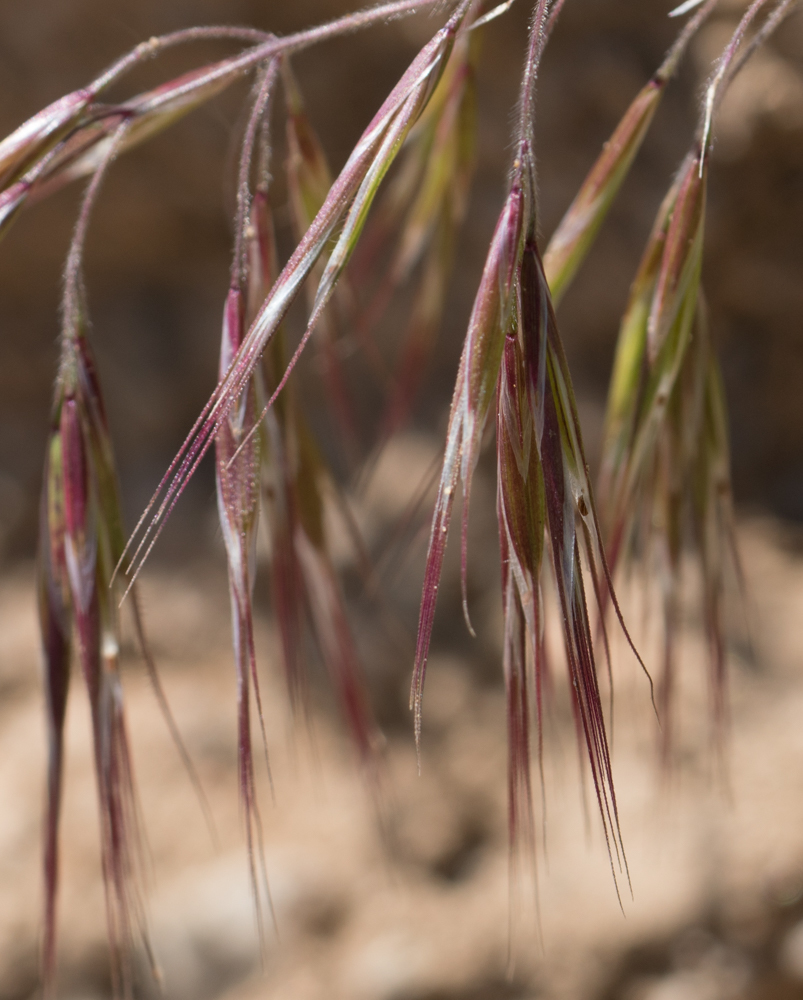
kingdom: Plantae
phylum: Tracheophyta
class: Liliopsida
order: Poales
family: Poaceae
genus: Bromus
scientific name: Bromus tectorum
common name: Cheatgrass
